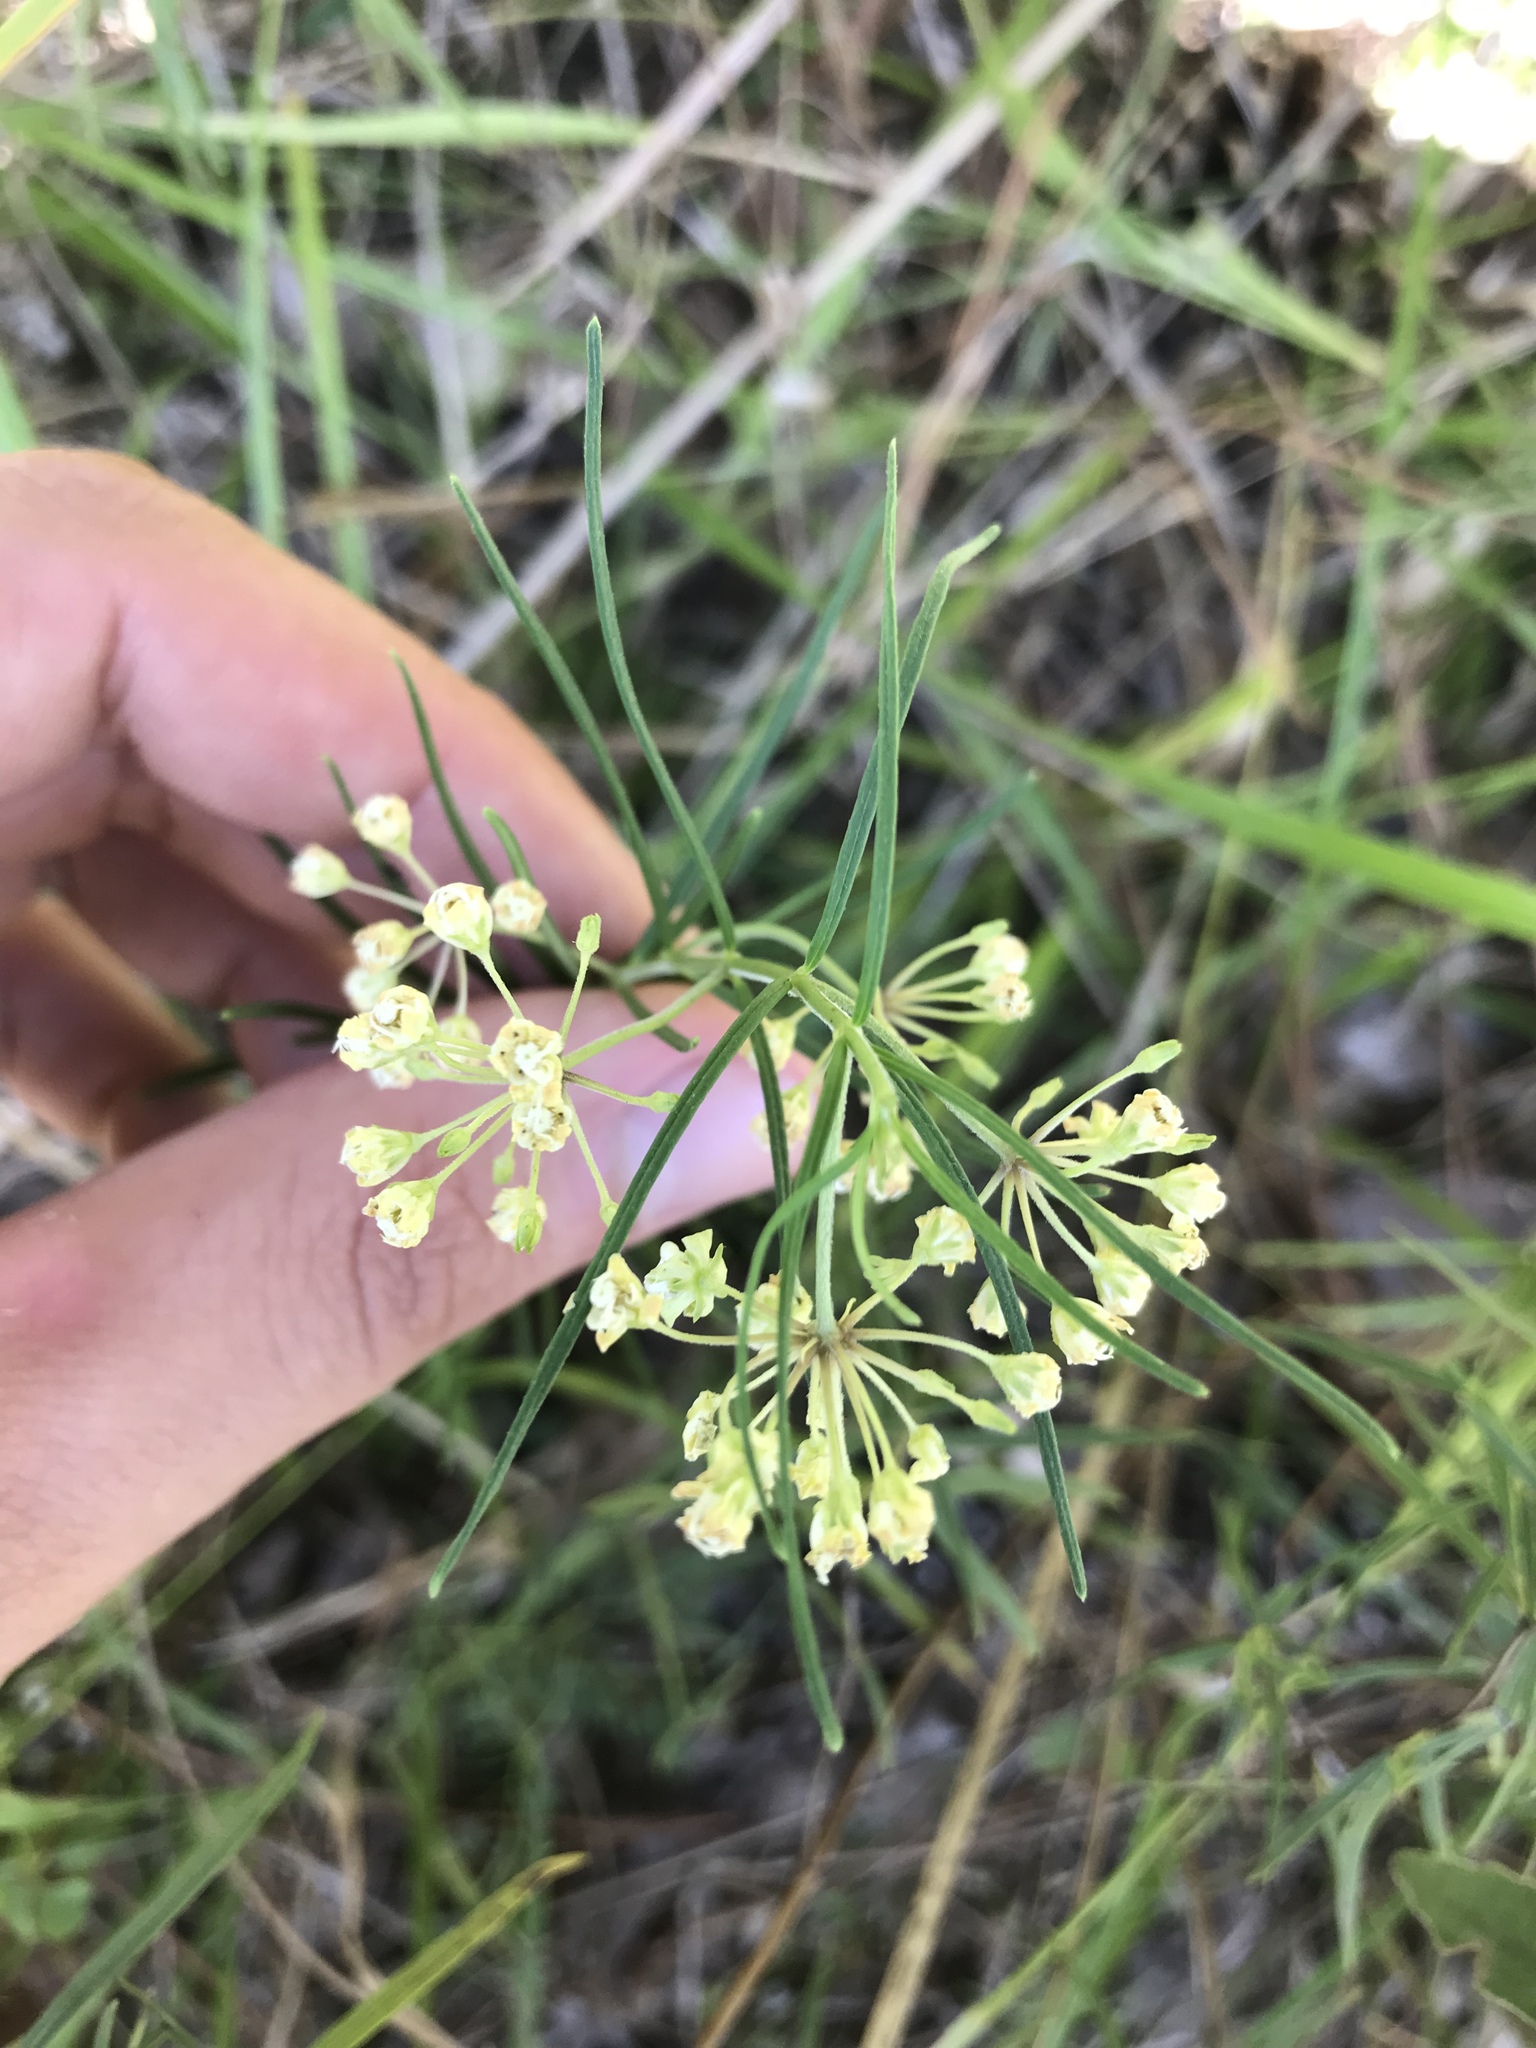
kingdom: Plantae
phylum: Tracheophyta
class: Magnoliopsida
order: Gentianales
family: Apocynaceae
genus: Asclepias
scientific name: Asclepias verticillata
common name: Eastern whorled milkweed
